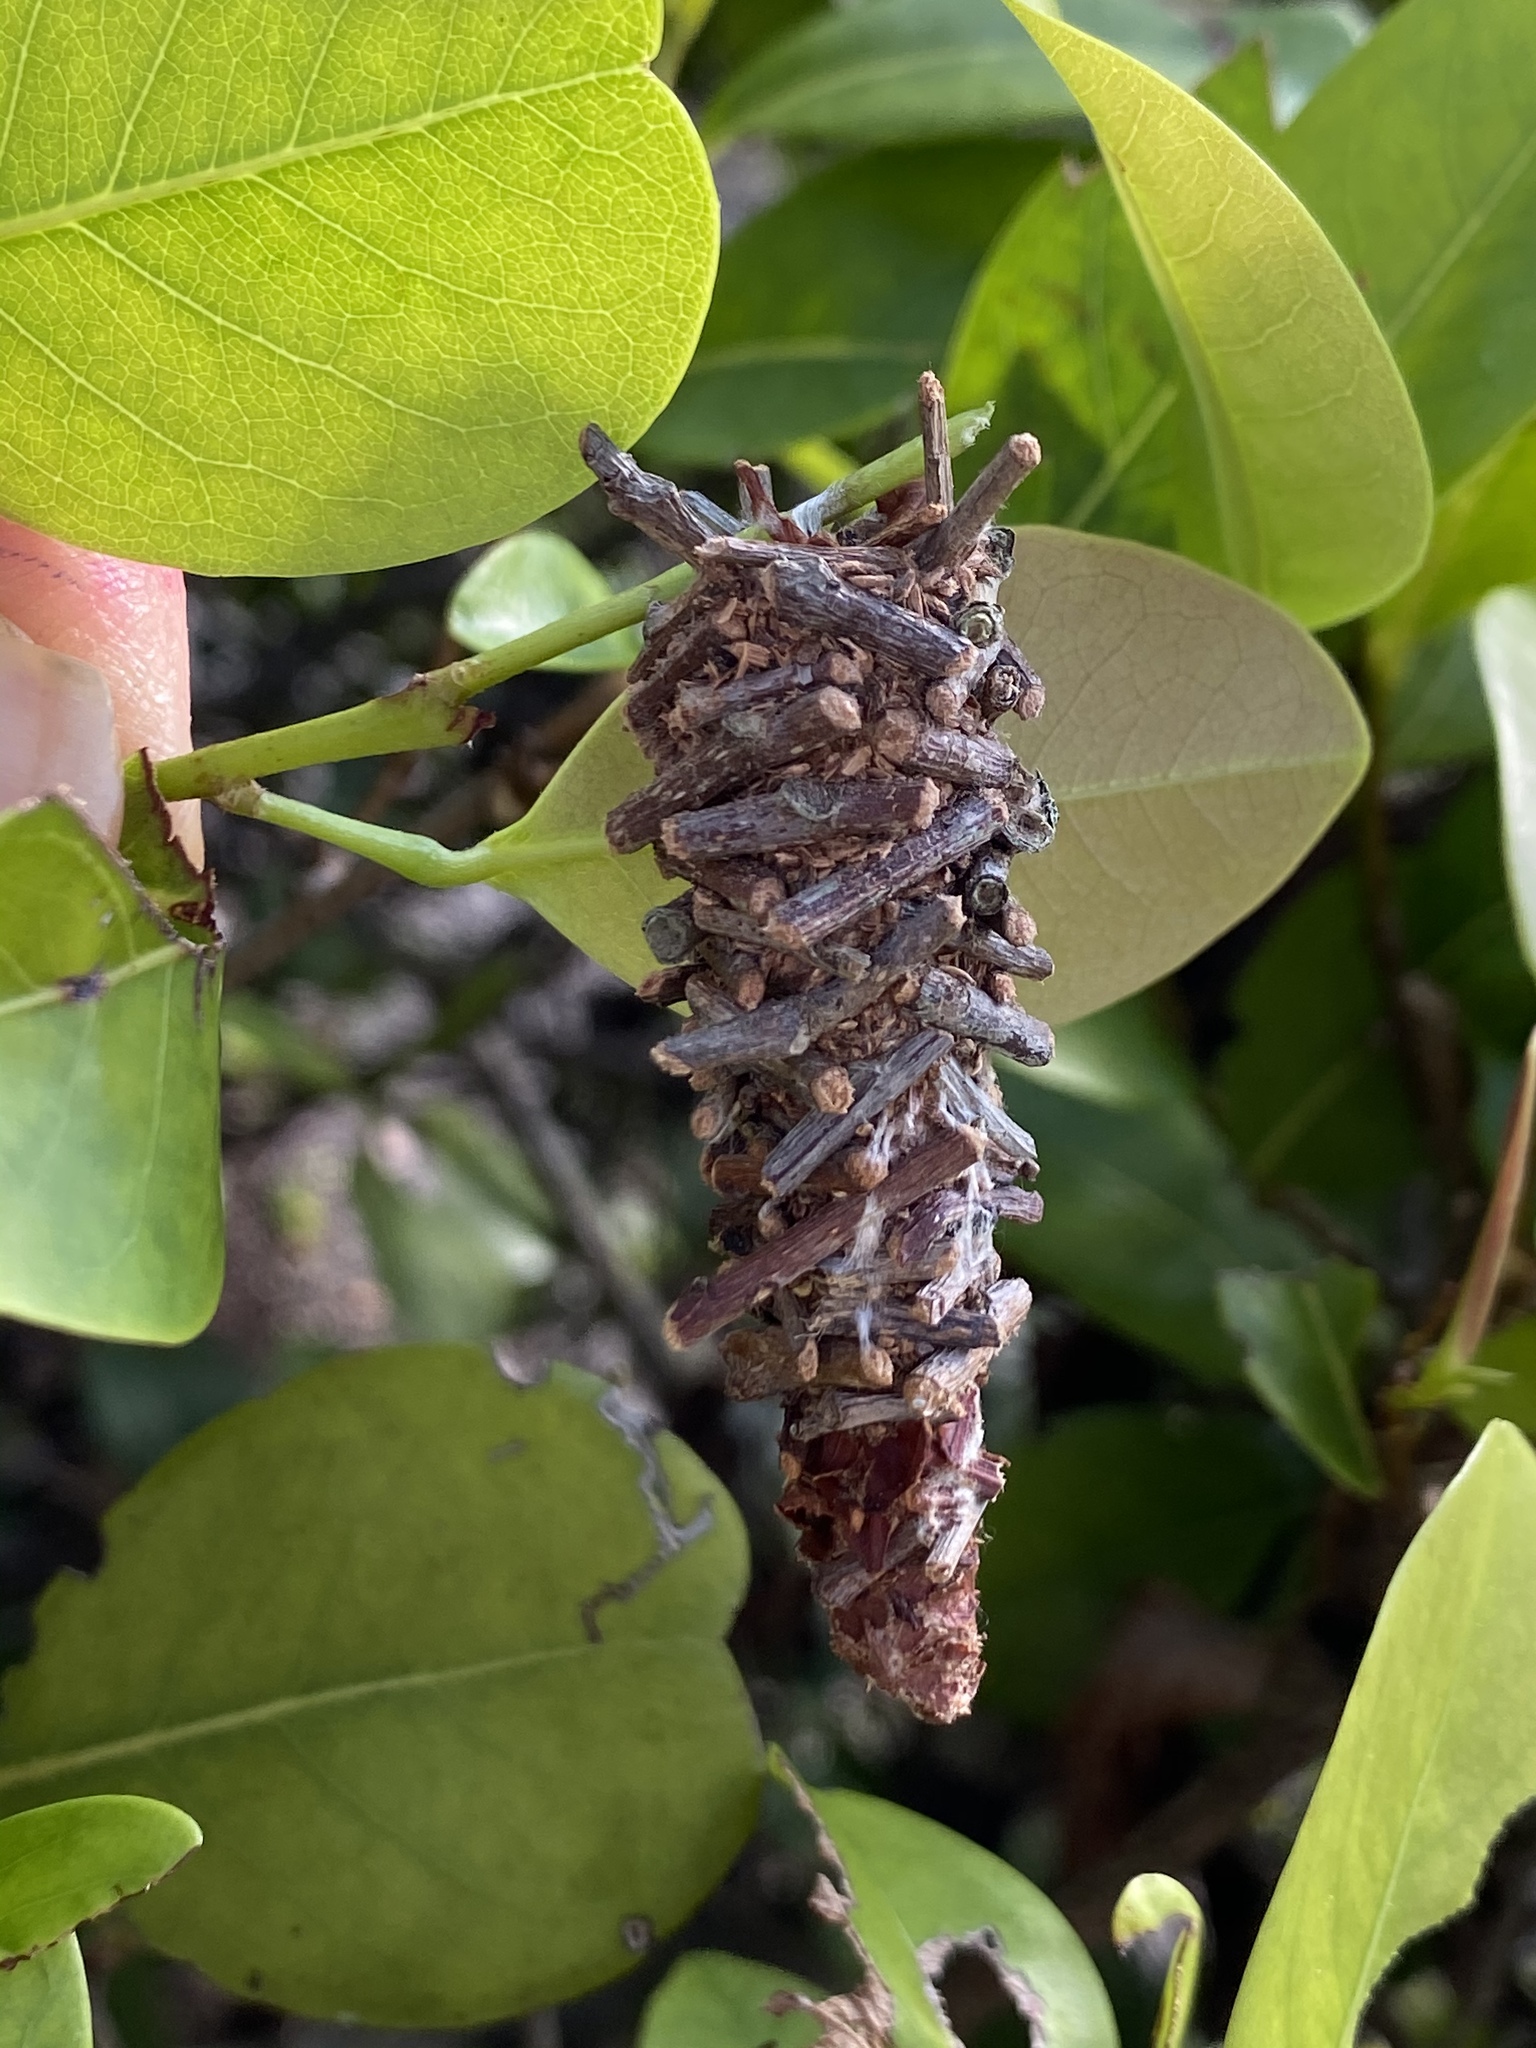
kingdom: Animalia
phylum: Arthropoda
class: Insecta
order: Lepidoptera
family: Psychidae
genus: Oiketicus
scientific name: Oiketicus
